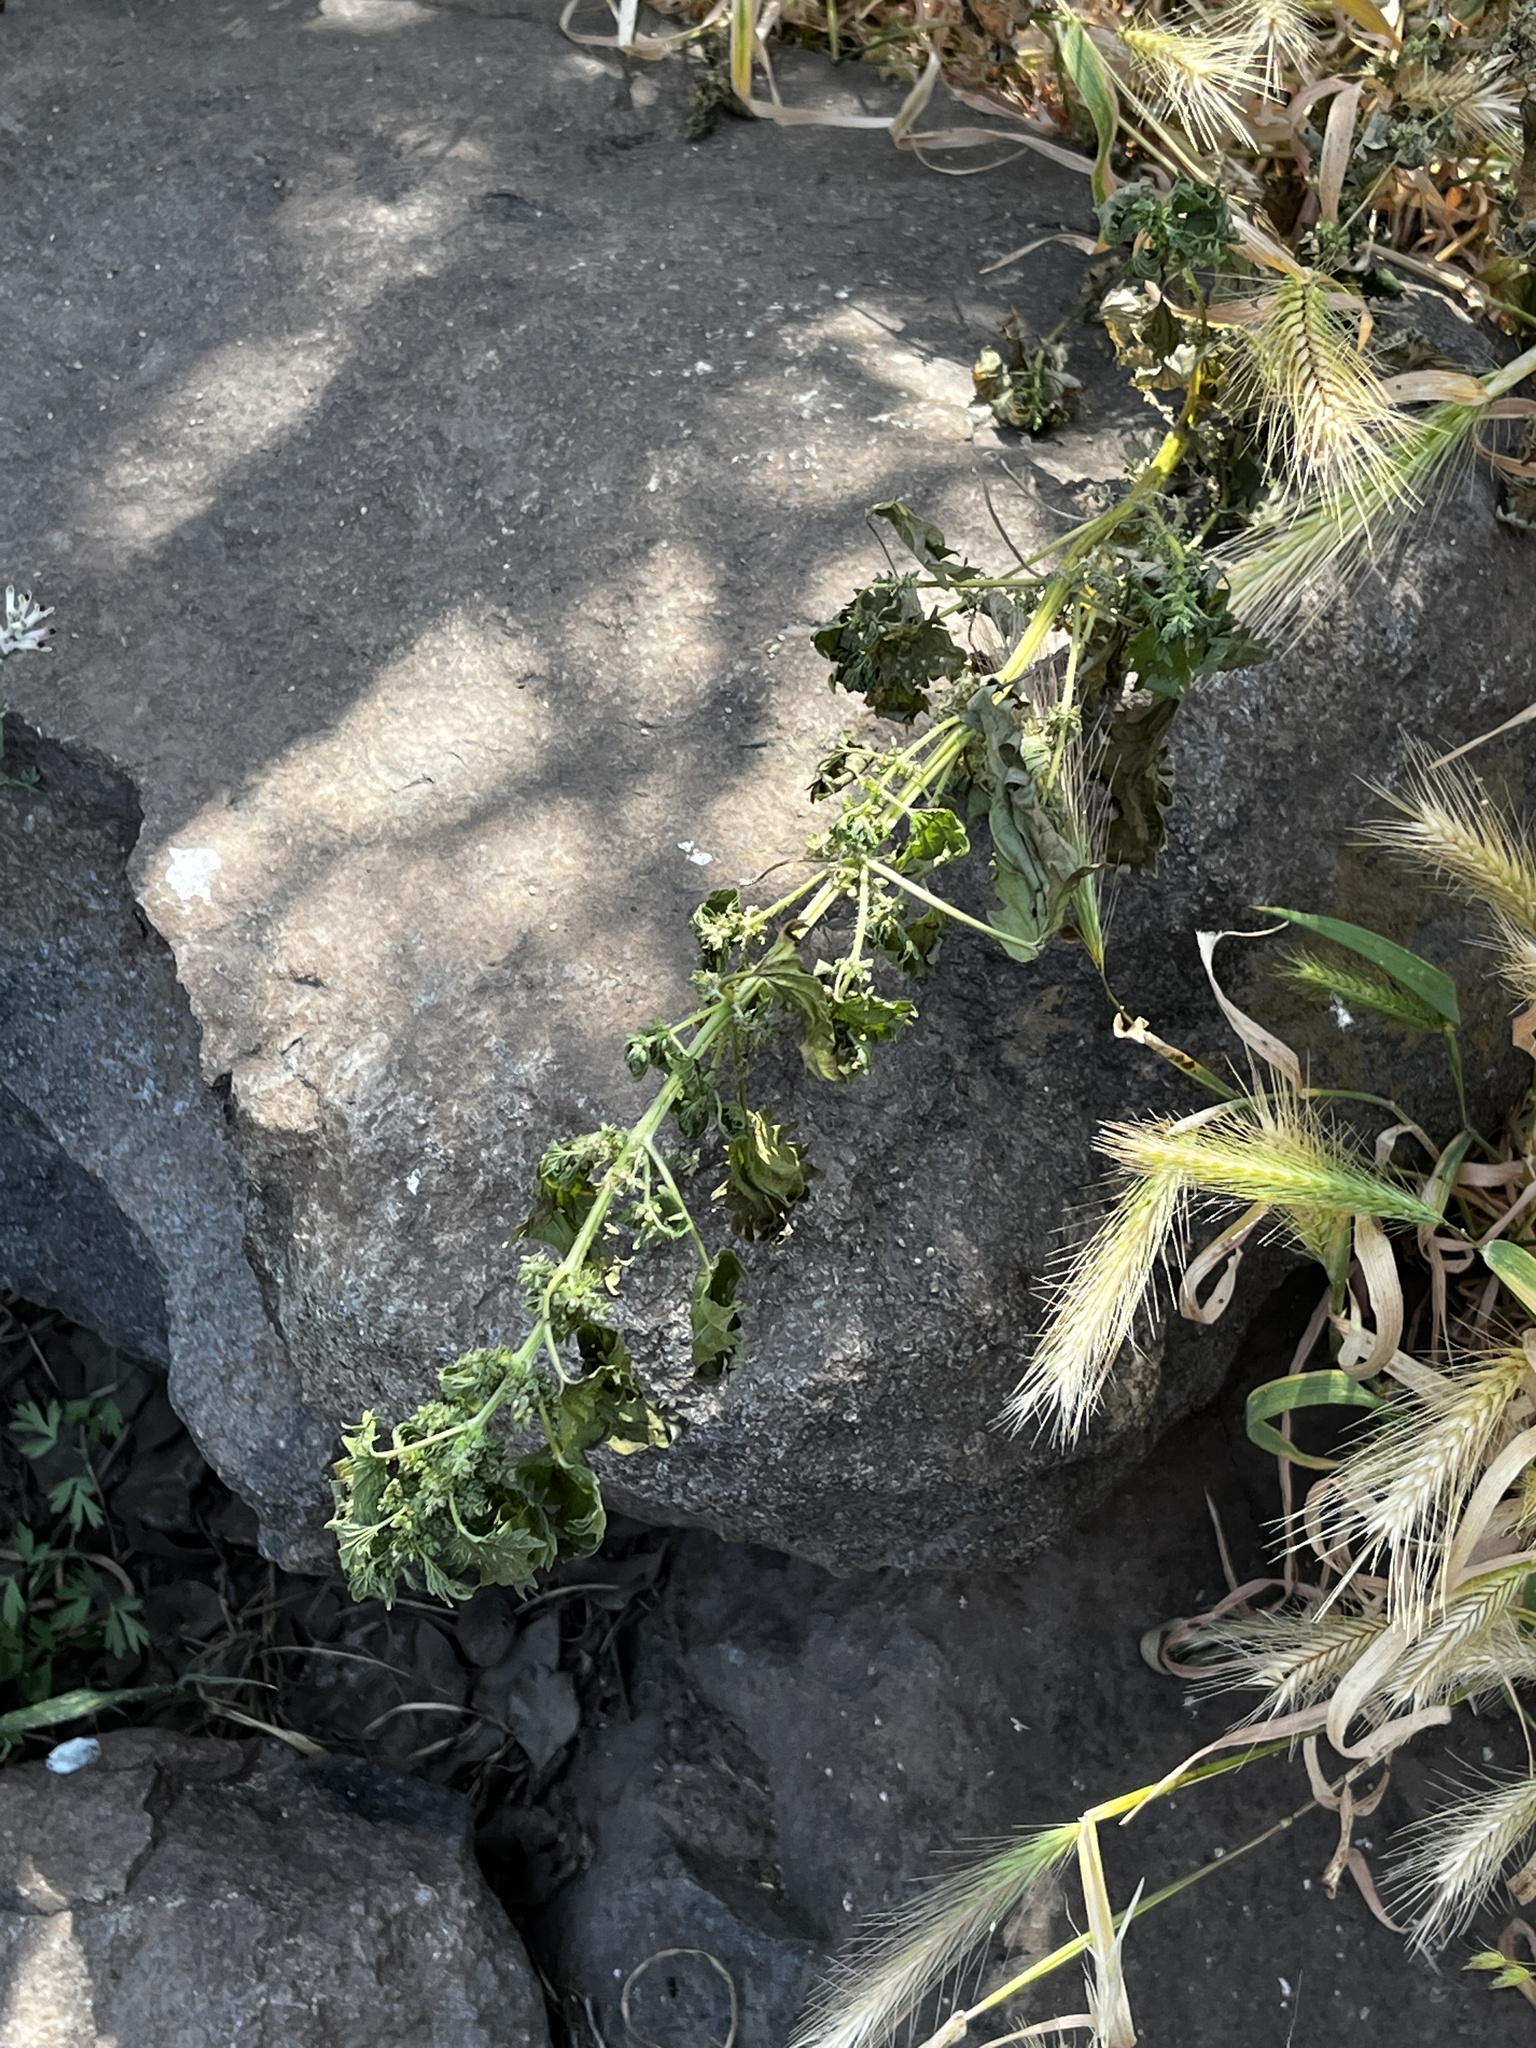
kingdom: Plantae
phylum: Tracheophyta
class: Magnoliopsida
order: Rosales
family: Urticaceae
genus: Urtica
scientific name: Urtica urens
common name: Dwarf nettle
